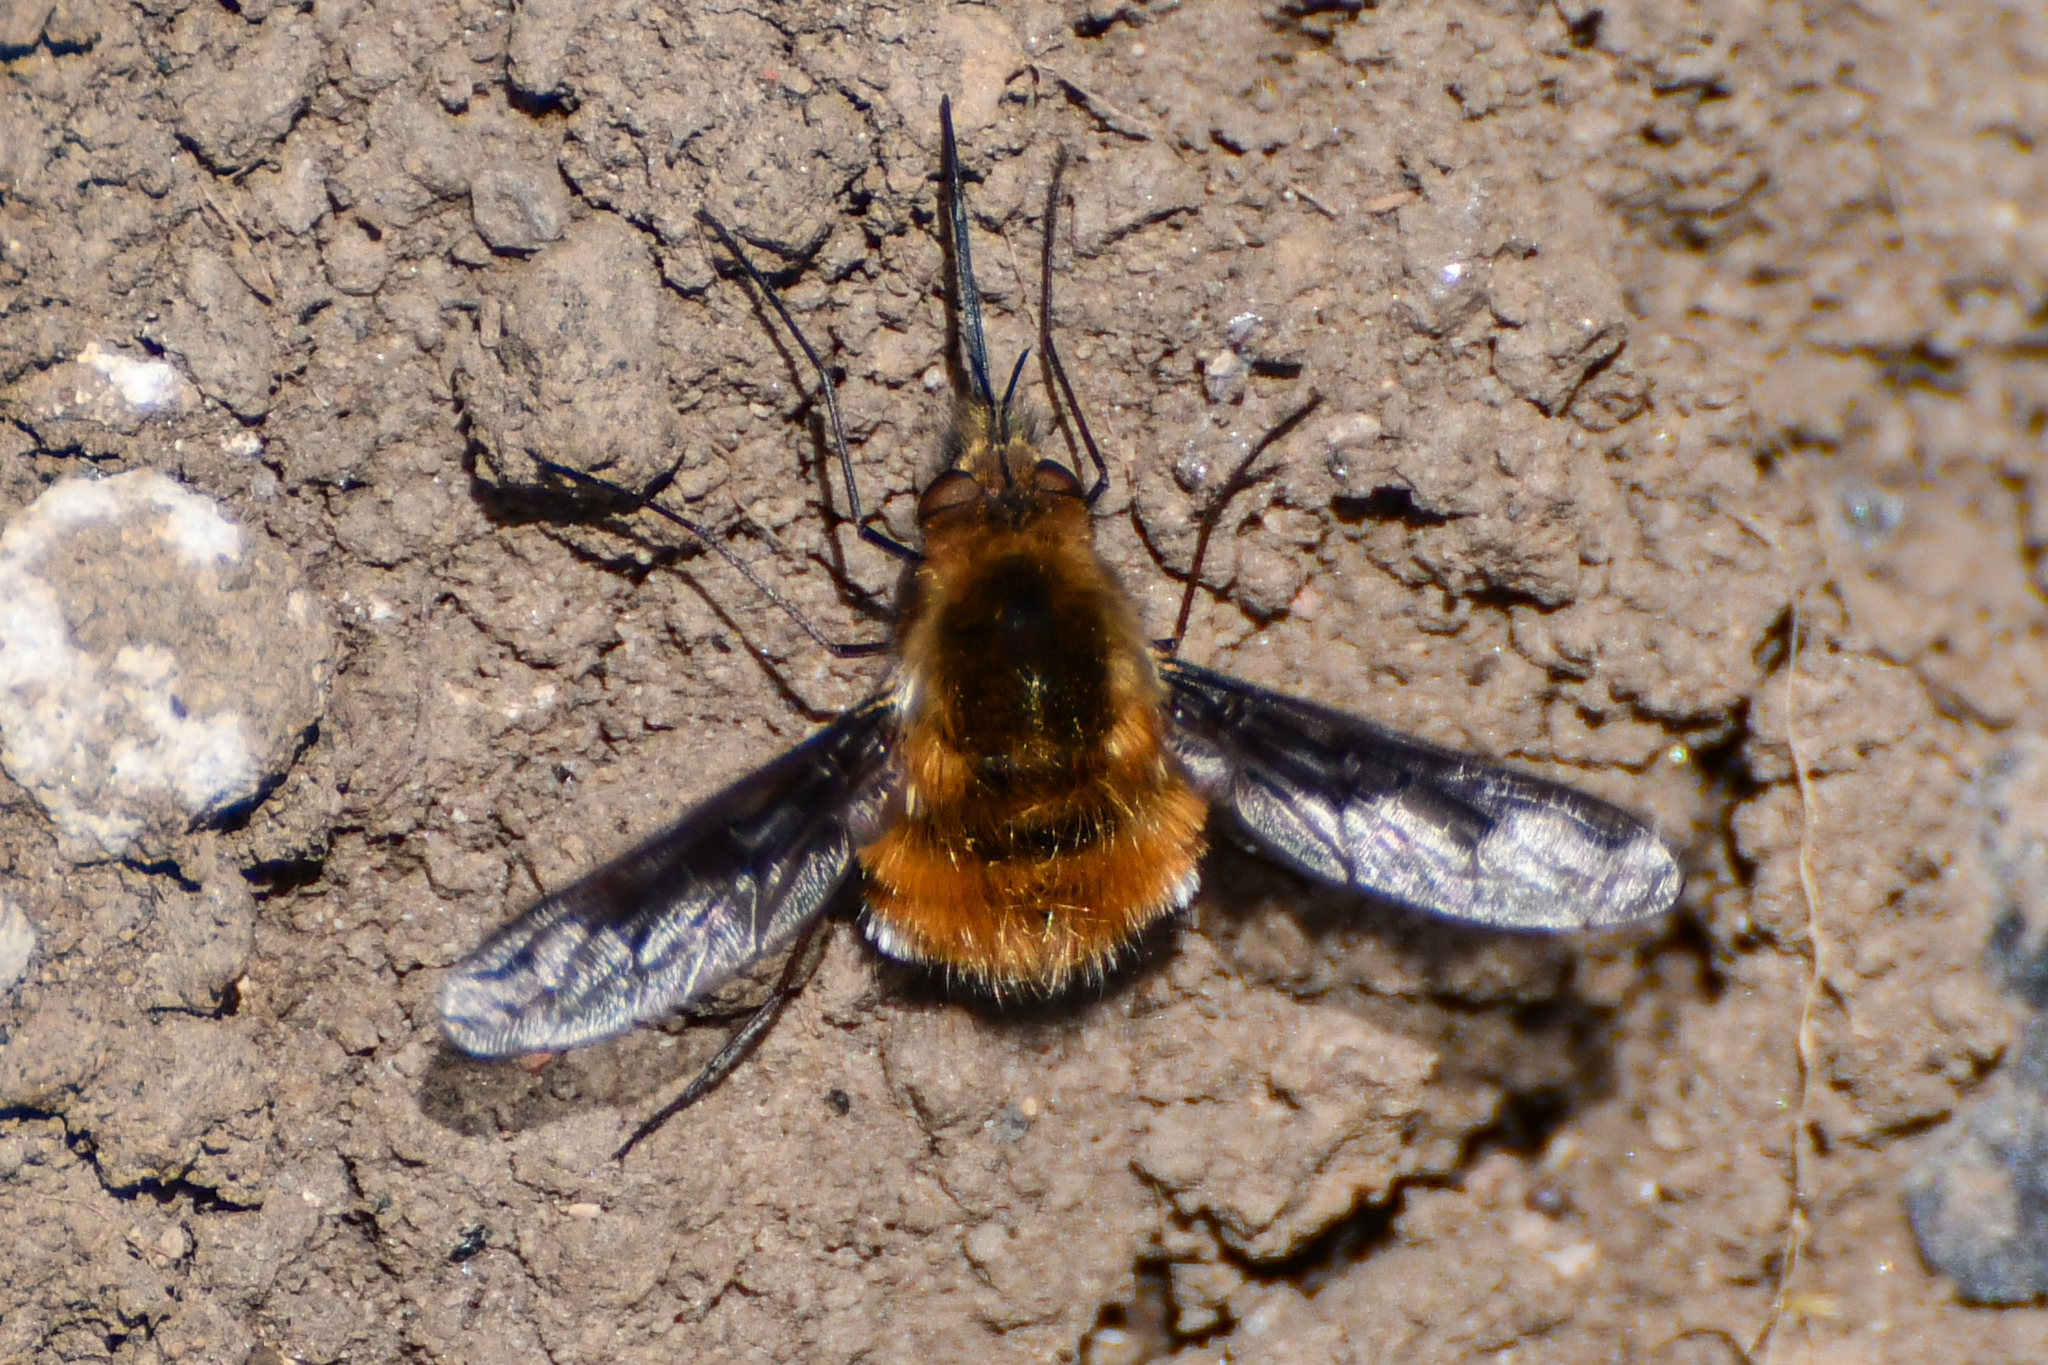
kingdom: Animalia
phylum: Arthropoda
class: Insecta
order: Diptera
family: Bombyliidae
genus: Bombylius
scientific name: Bombylius major
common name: Bee fly
